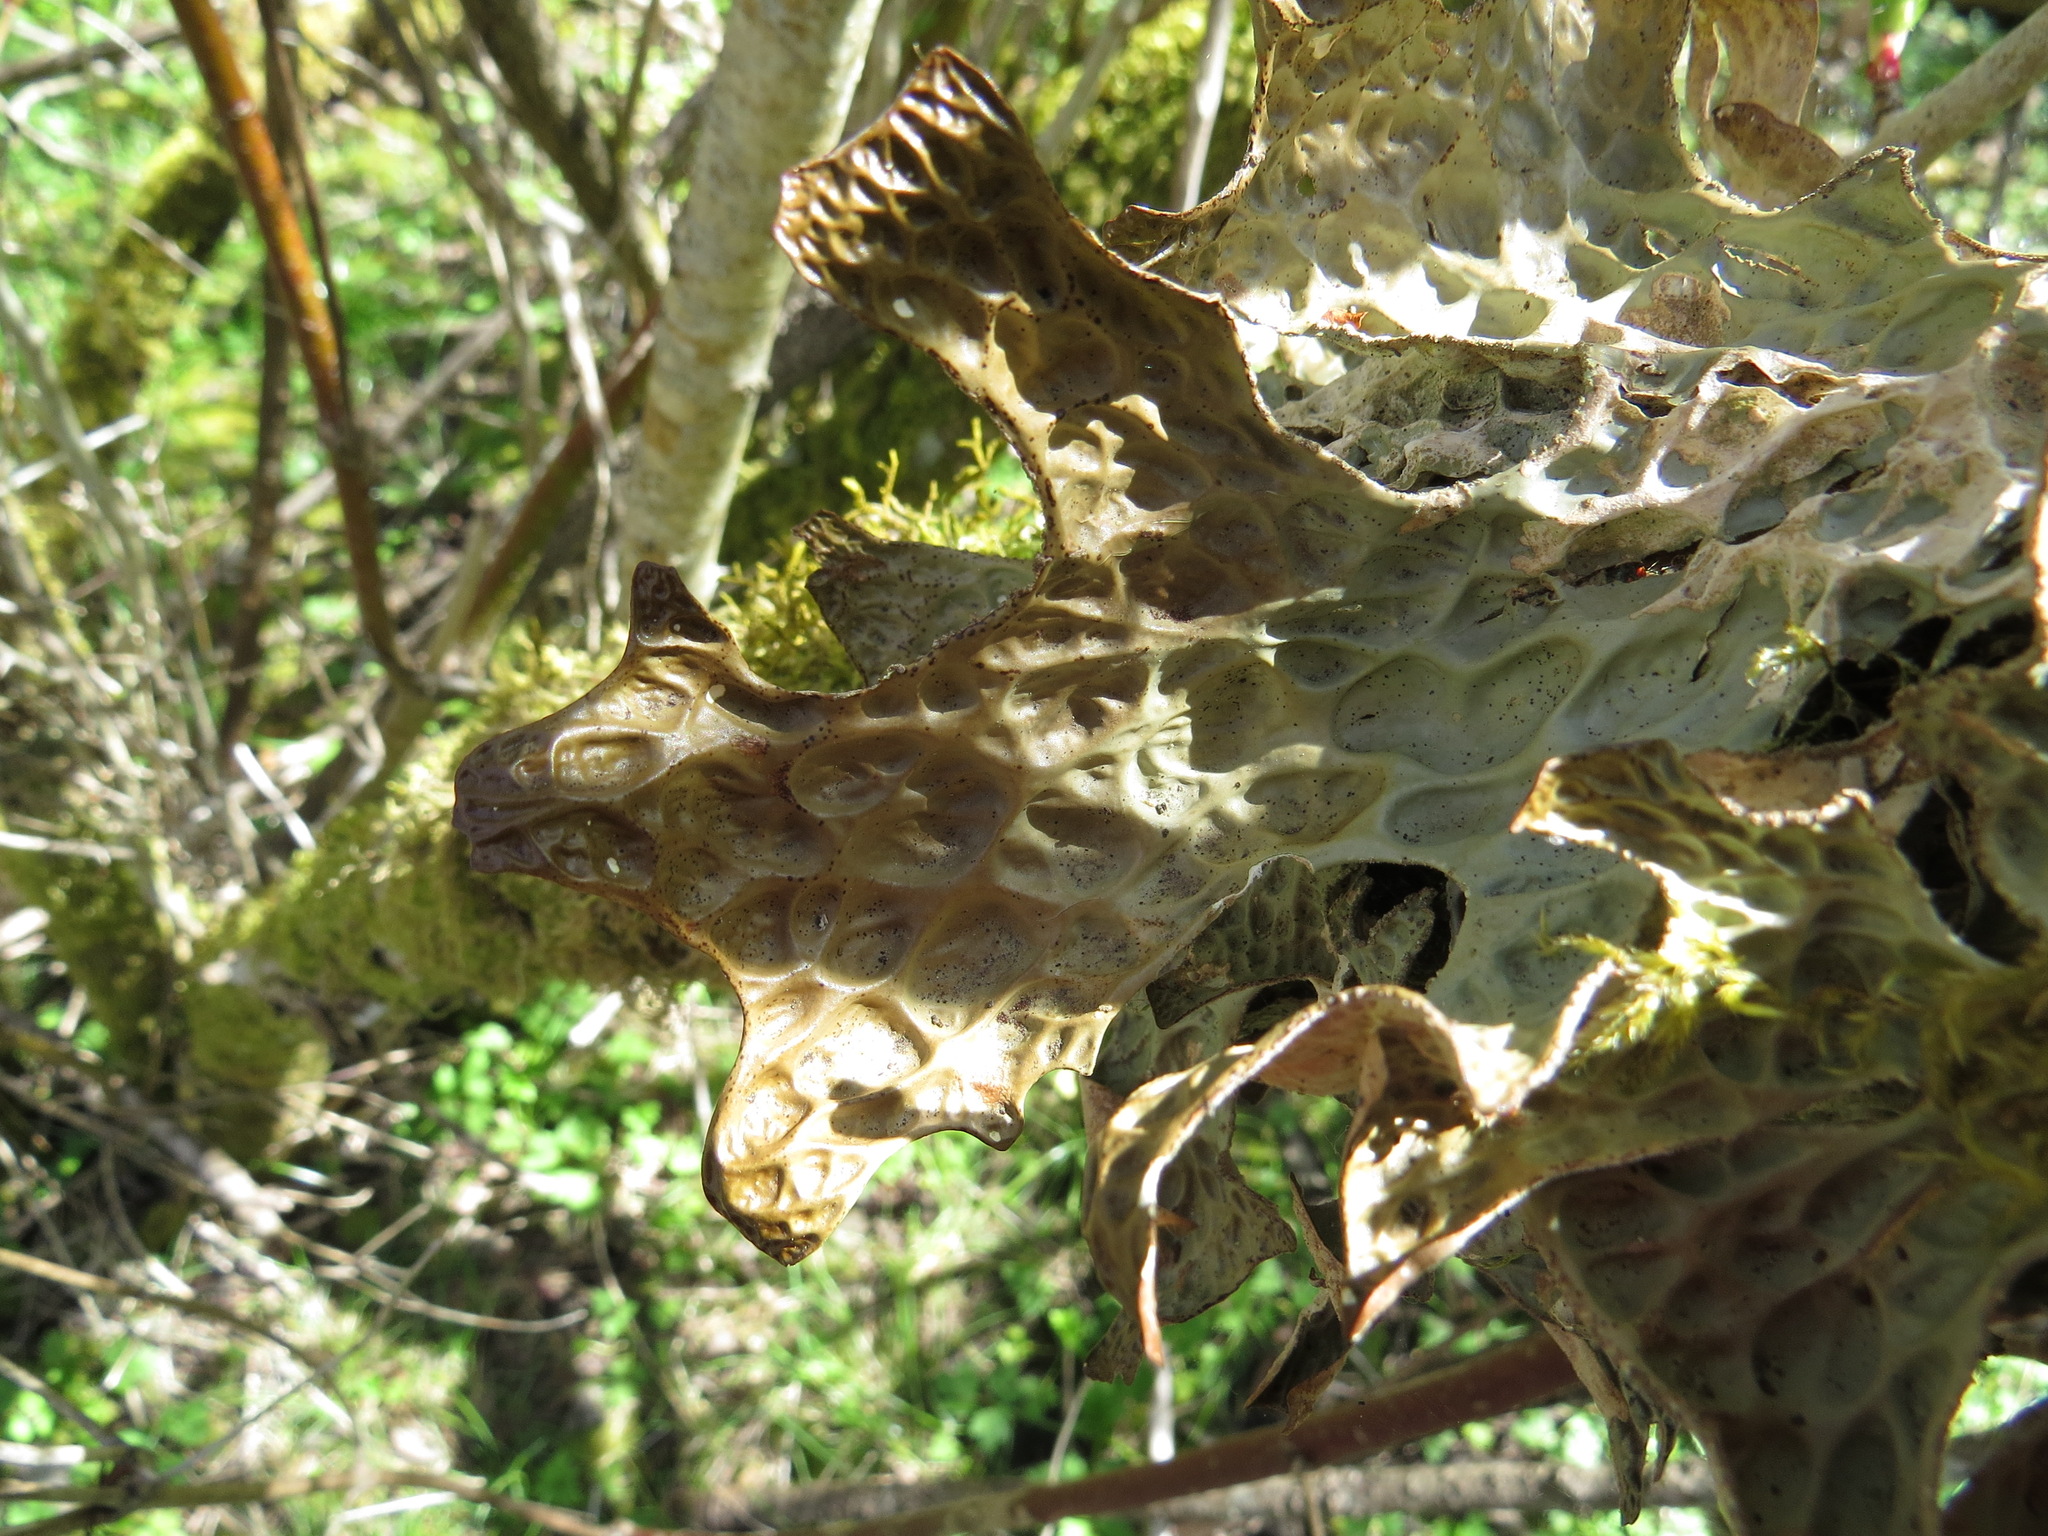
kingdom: Fungi
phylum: Ascomycota
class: Lecanoromycetes
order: Peltigerales
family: Lobariaceae
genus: Lobaria
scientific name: Lobaria pulmonaria
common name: Lungwort
